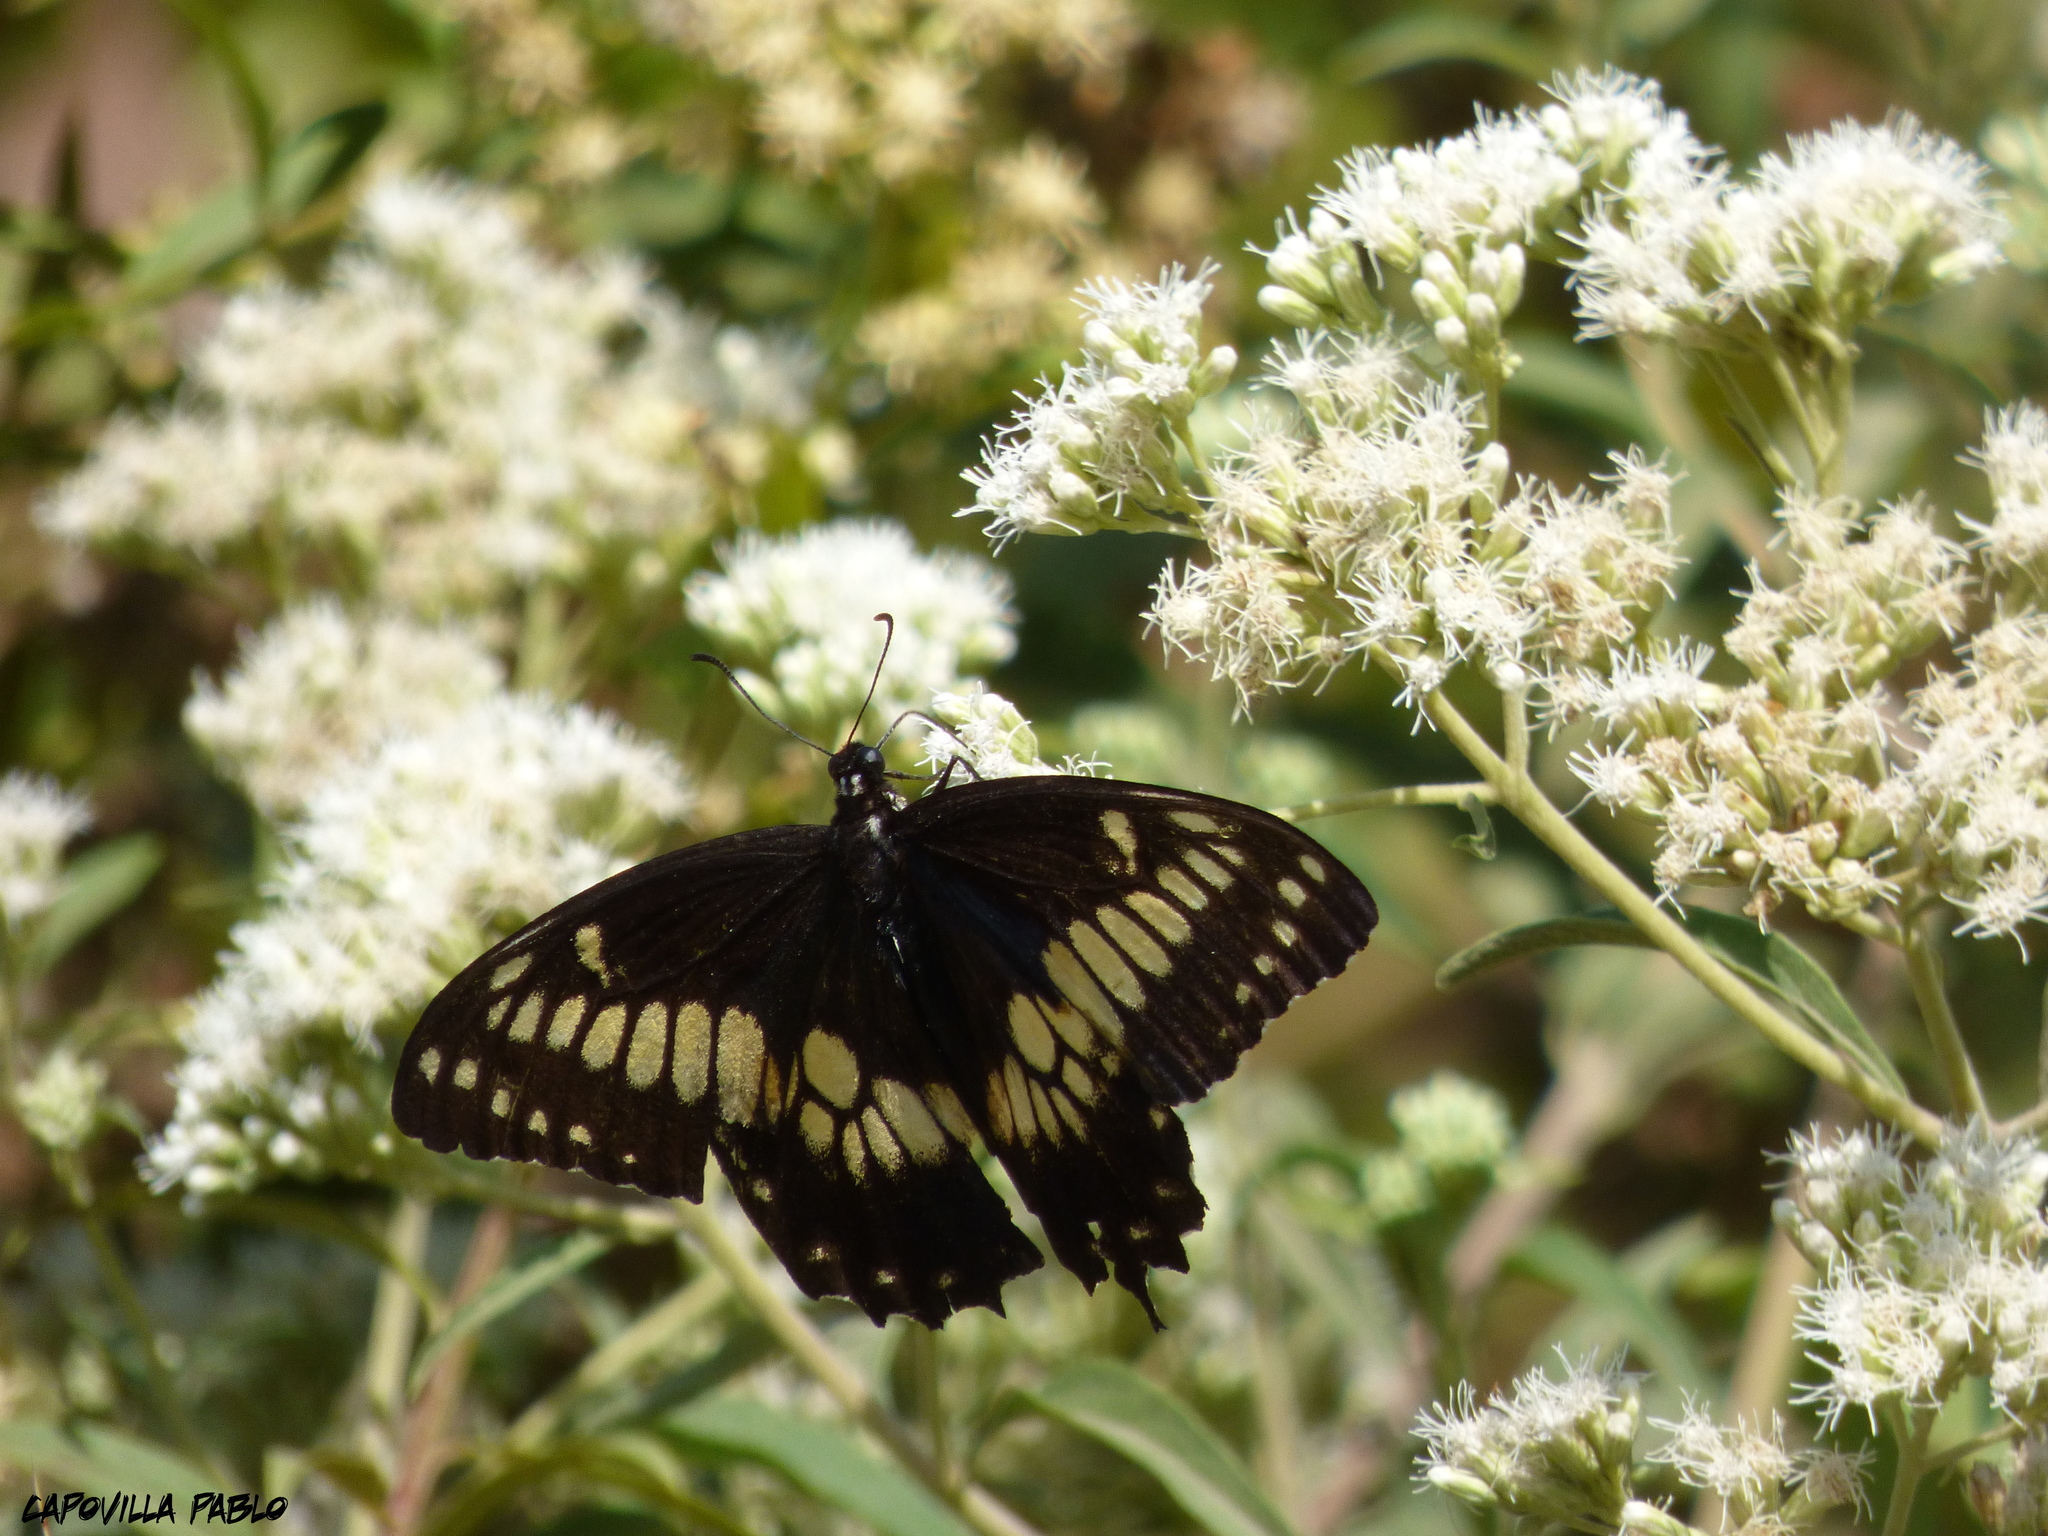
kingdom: Animalia
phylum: Arthropoda
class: Insecta
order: Lepidoptera
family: Papilionidae
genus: Papilio
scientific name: Papilio hellanichus
